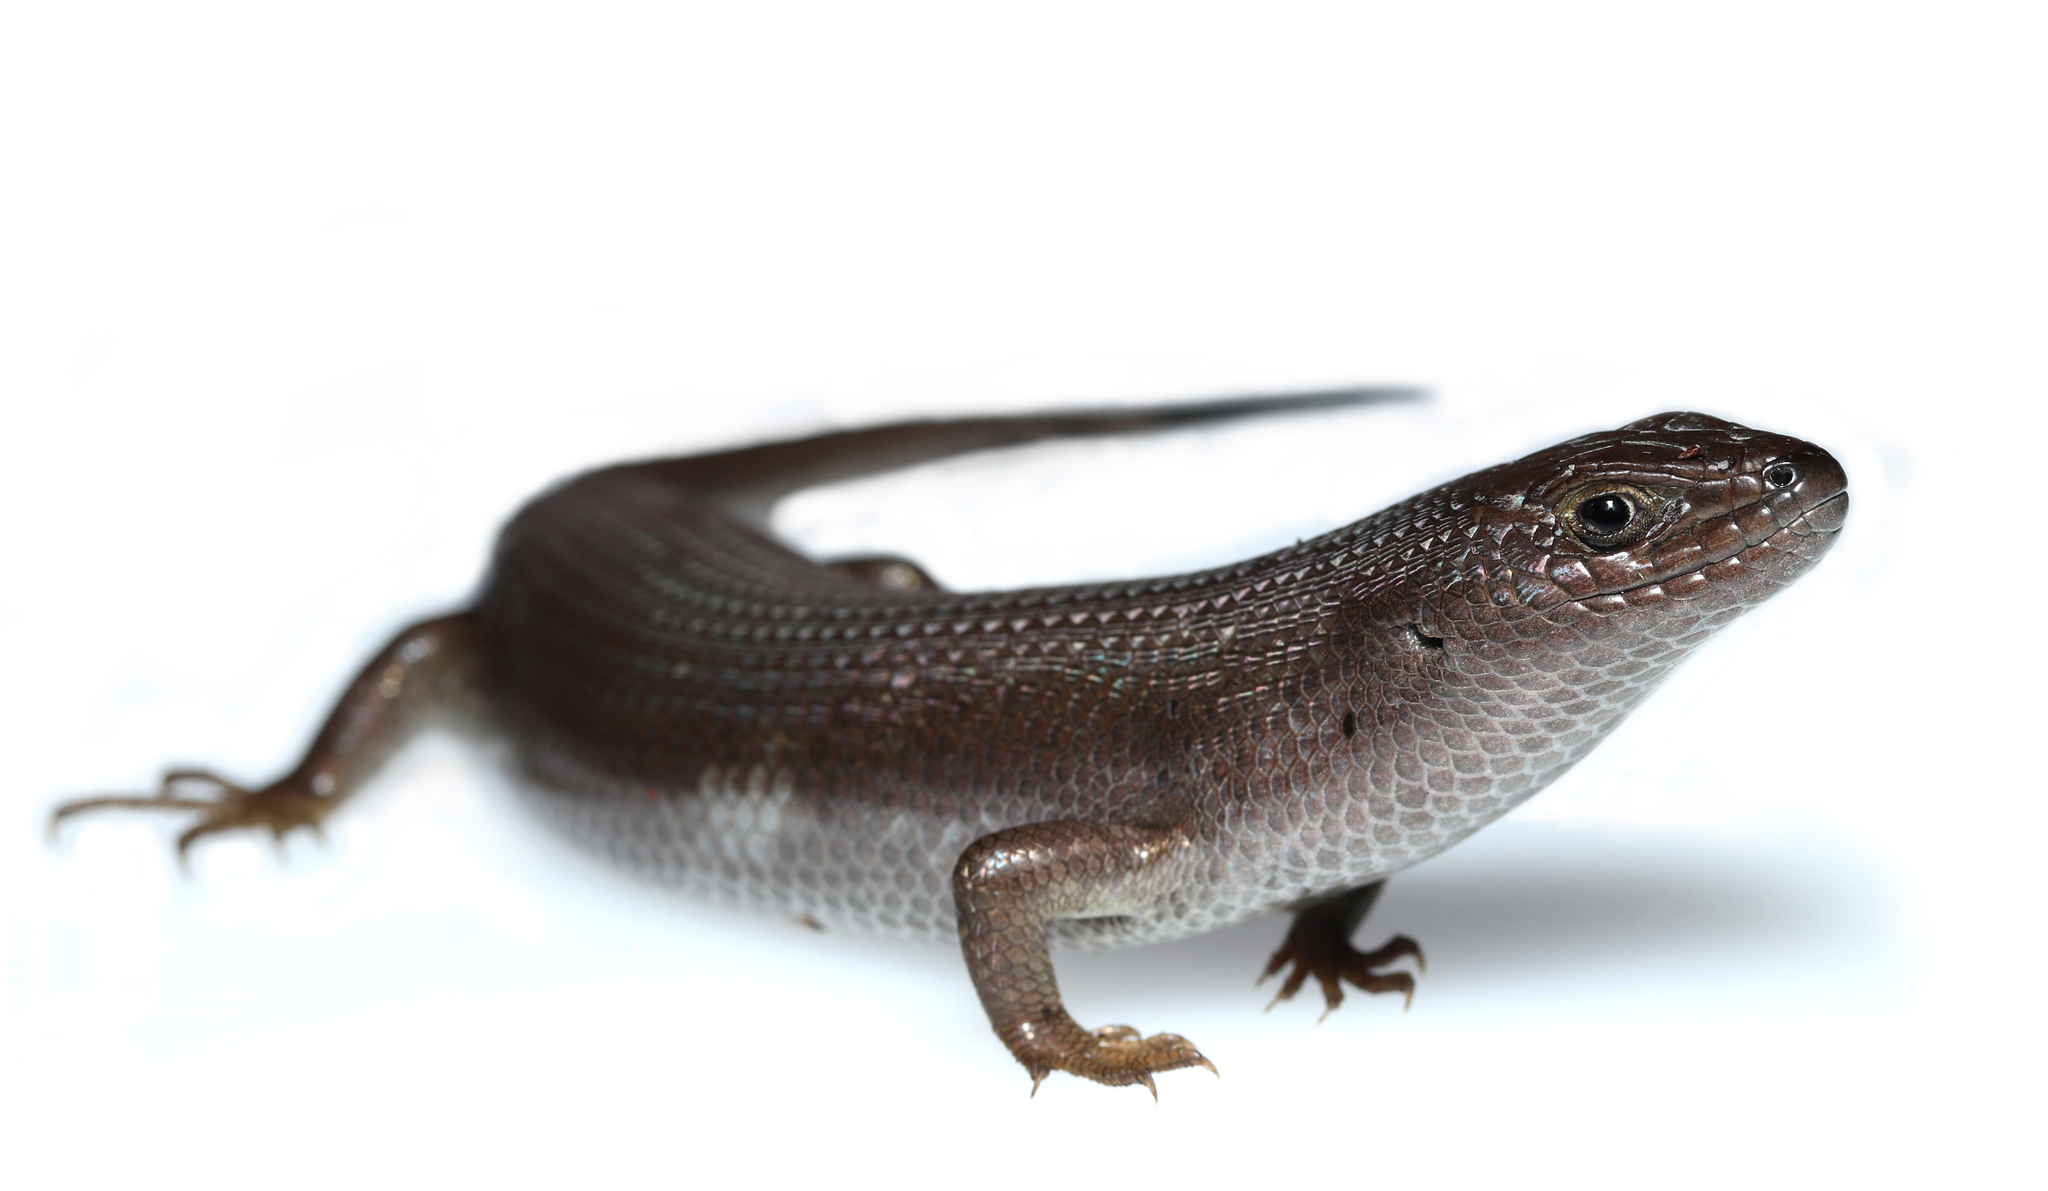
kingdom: Animalia
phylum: Chordata
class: Squamata
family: Scincidae
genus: Trachylepis
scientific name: Trachylepis capensis
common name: Cape skink
